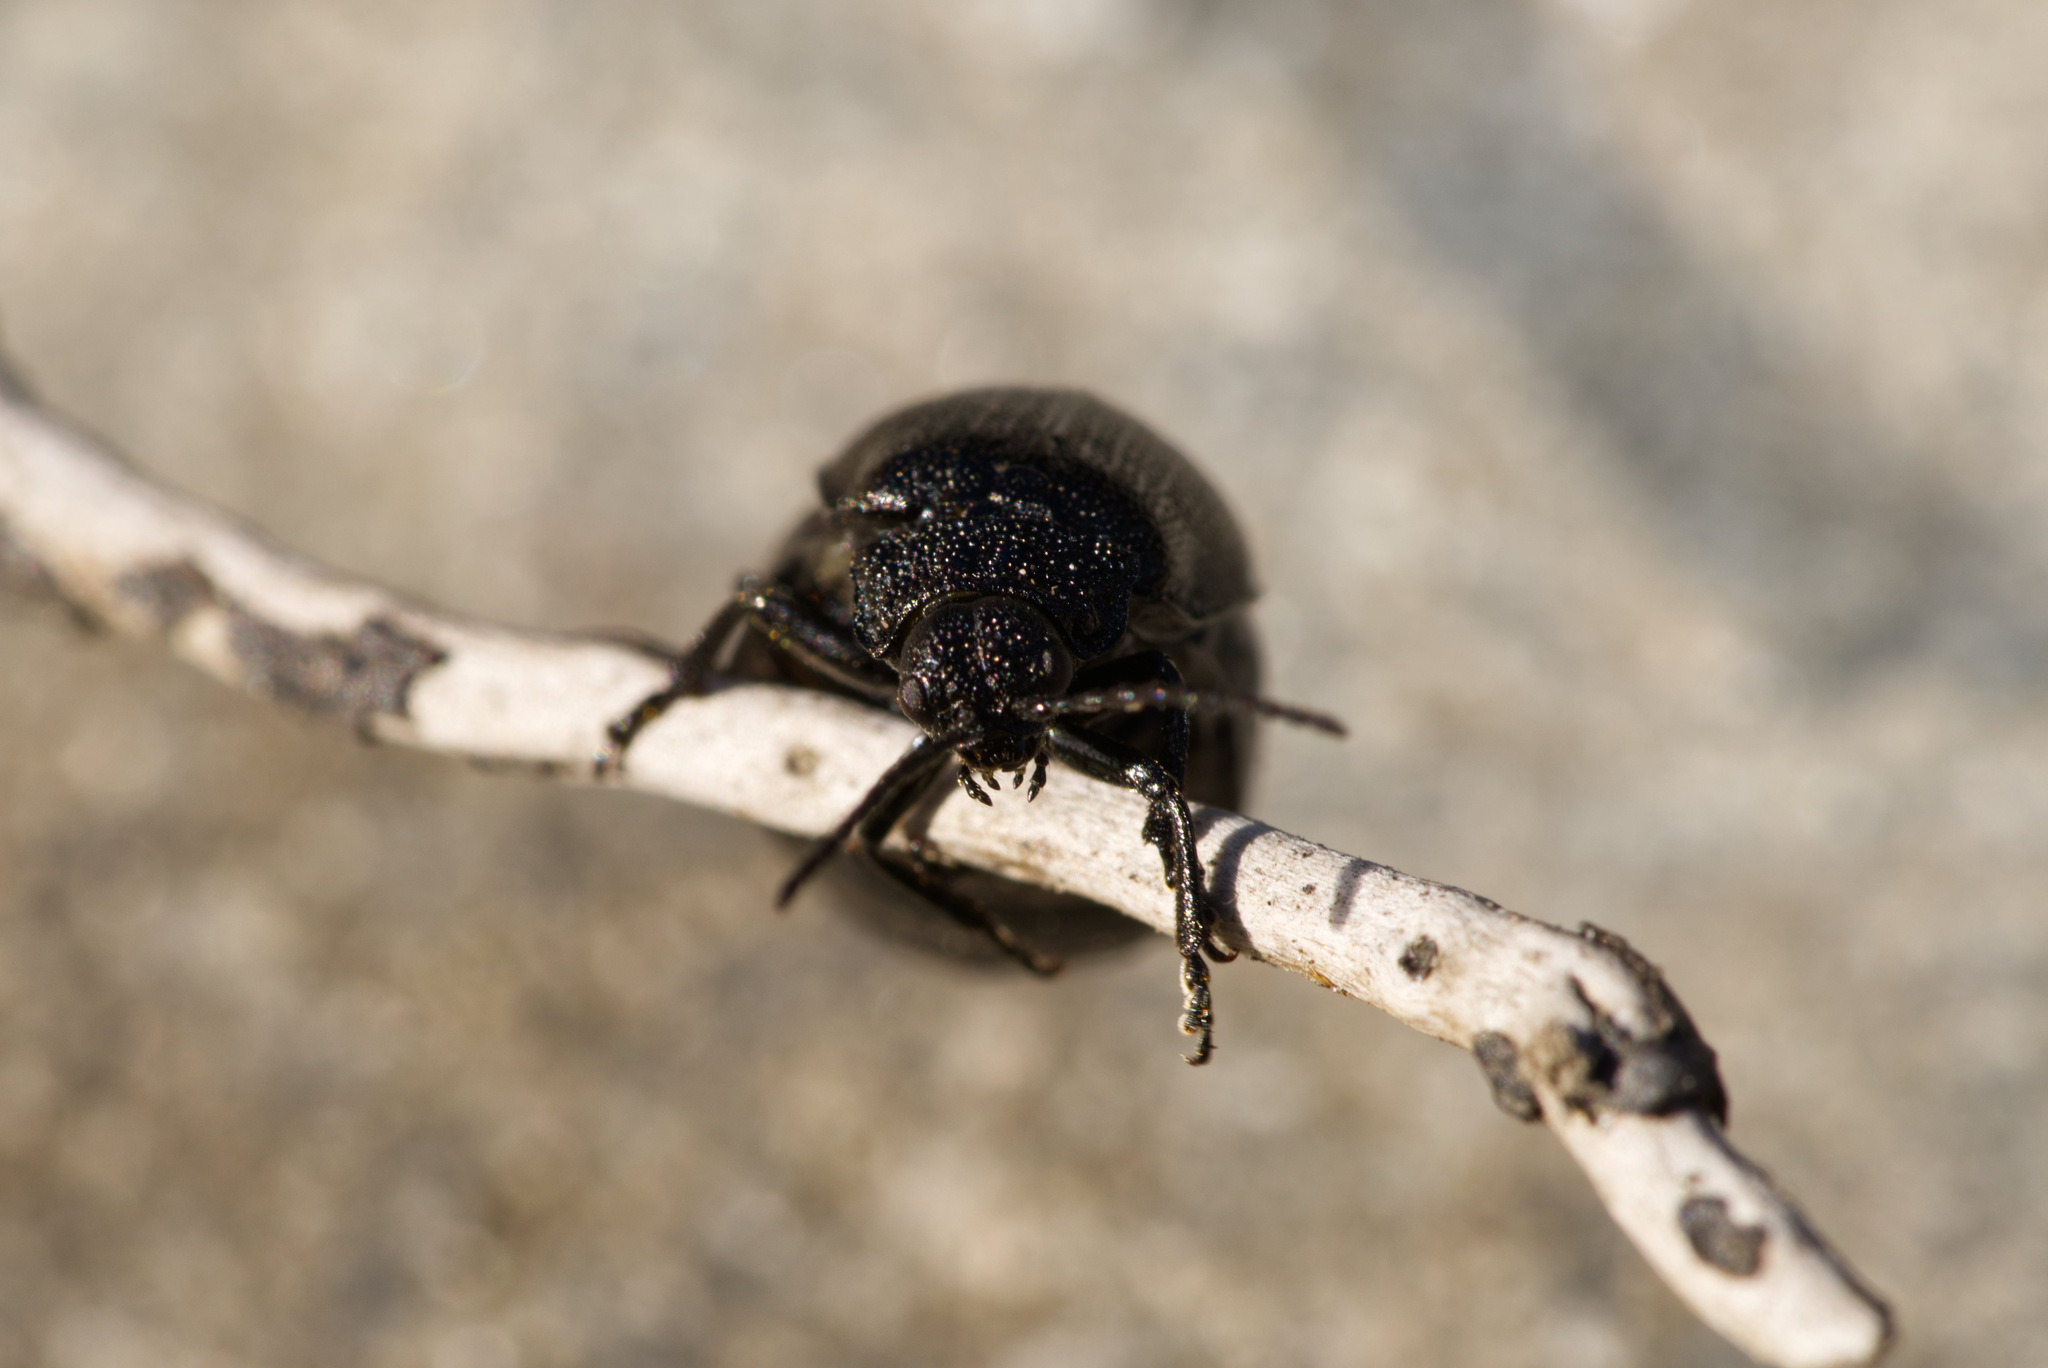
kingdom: Animalia
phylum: Arthropoda
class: Insecta
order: Coleoptera
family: Chrysomelidae
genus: Galeruca
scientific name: Galeruca tanaceti
